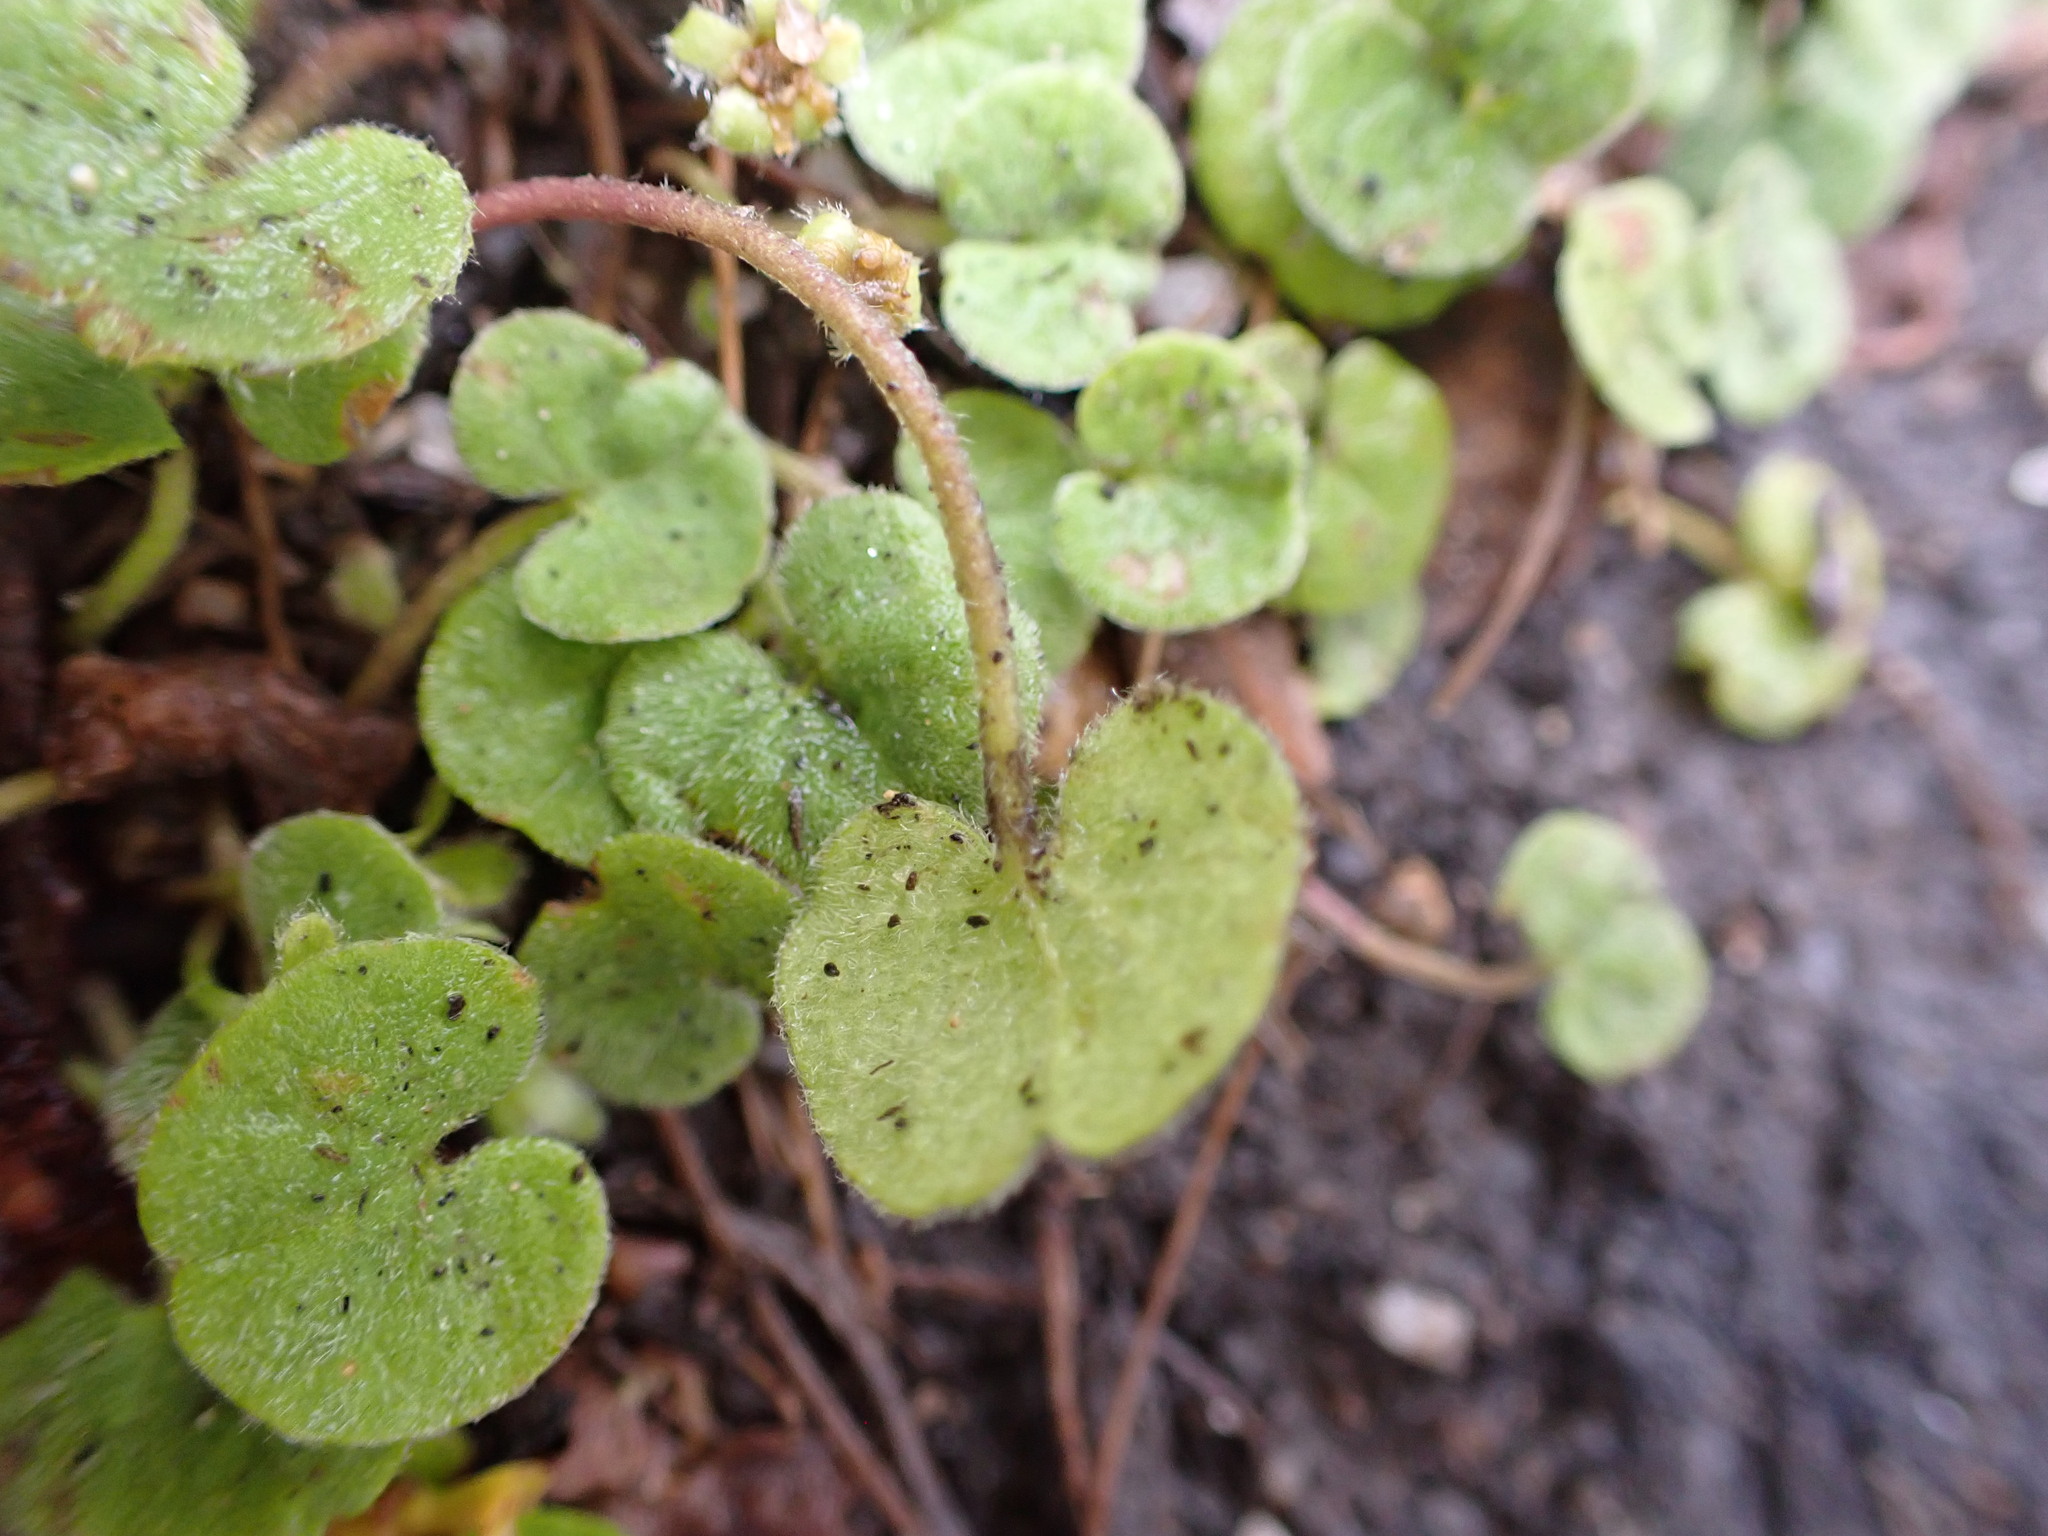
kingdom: Plantae
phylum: Tracheophyta
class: Magnoliopsida
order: Solanales
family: Convolvulaceae
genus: Dichondra
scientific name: Dichondra repens
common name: Kidneyweed
